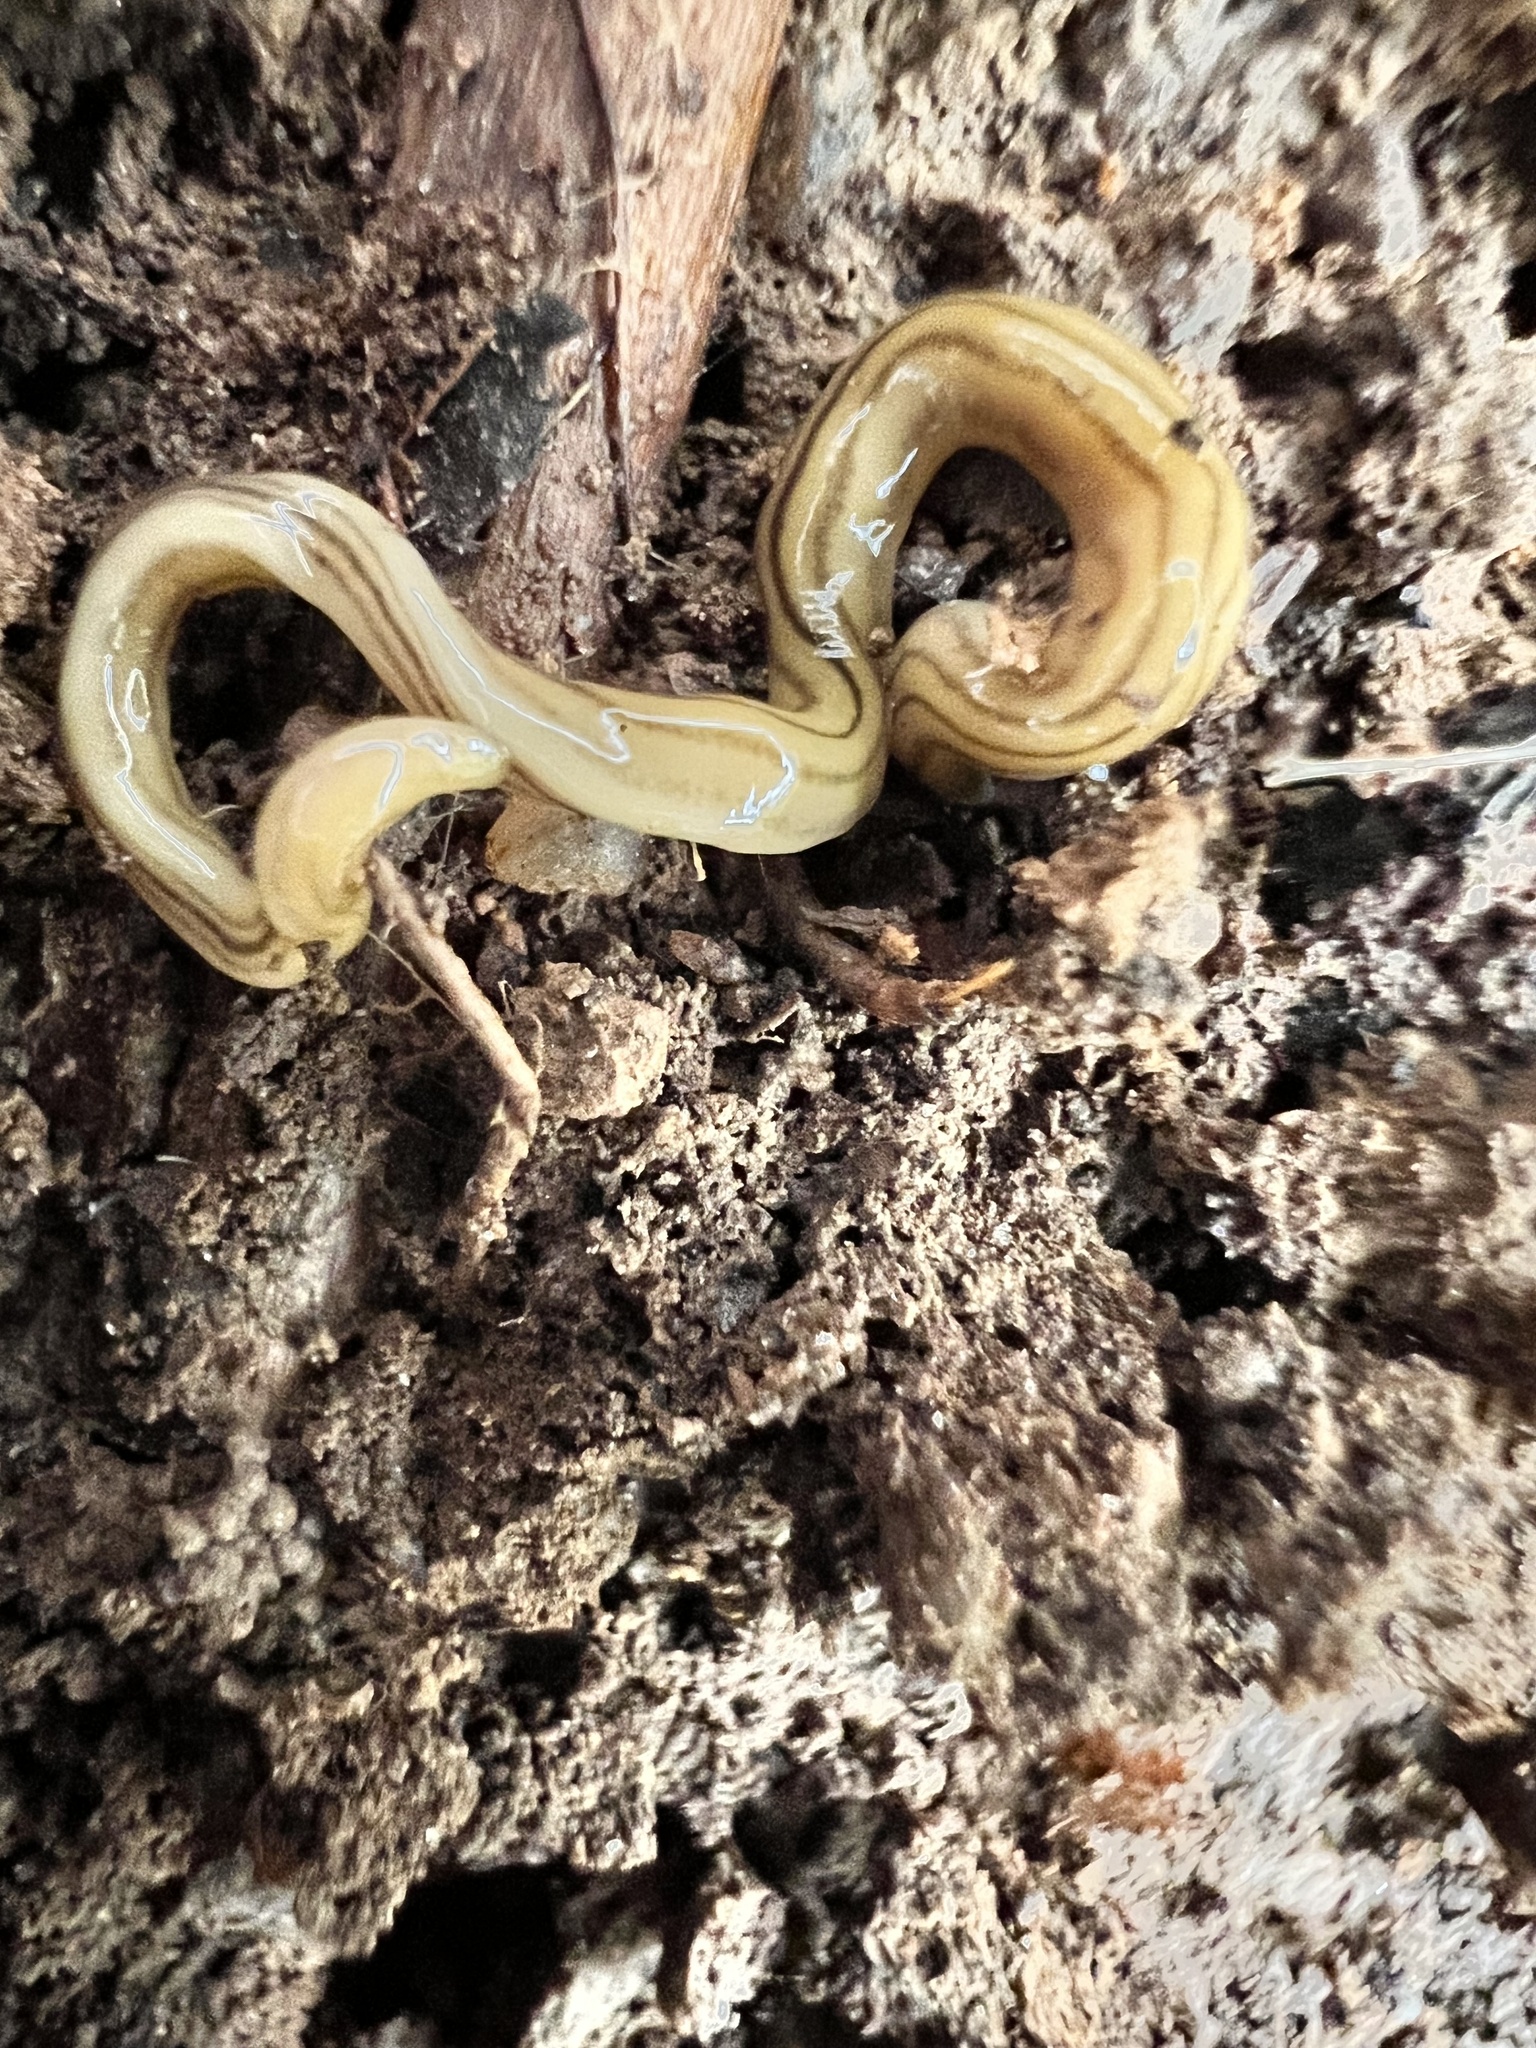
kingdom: Animalia
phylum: Platyhelminthes
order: Tricladida
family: Geoplanidae
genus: Diversibipalium
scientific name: Diversibipalium multilineatum
